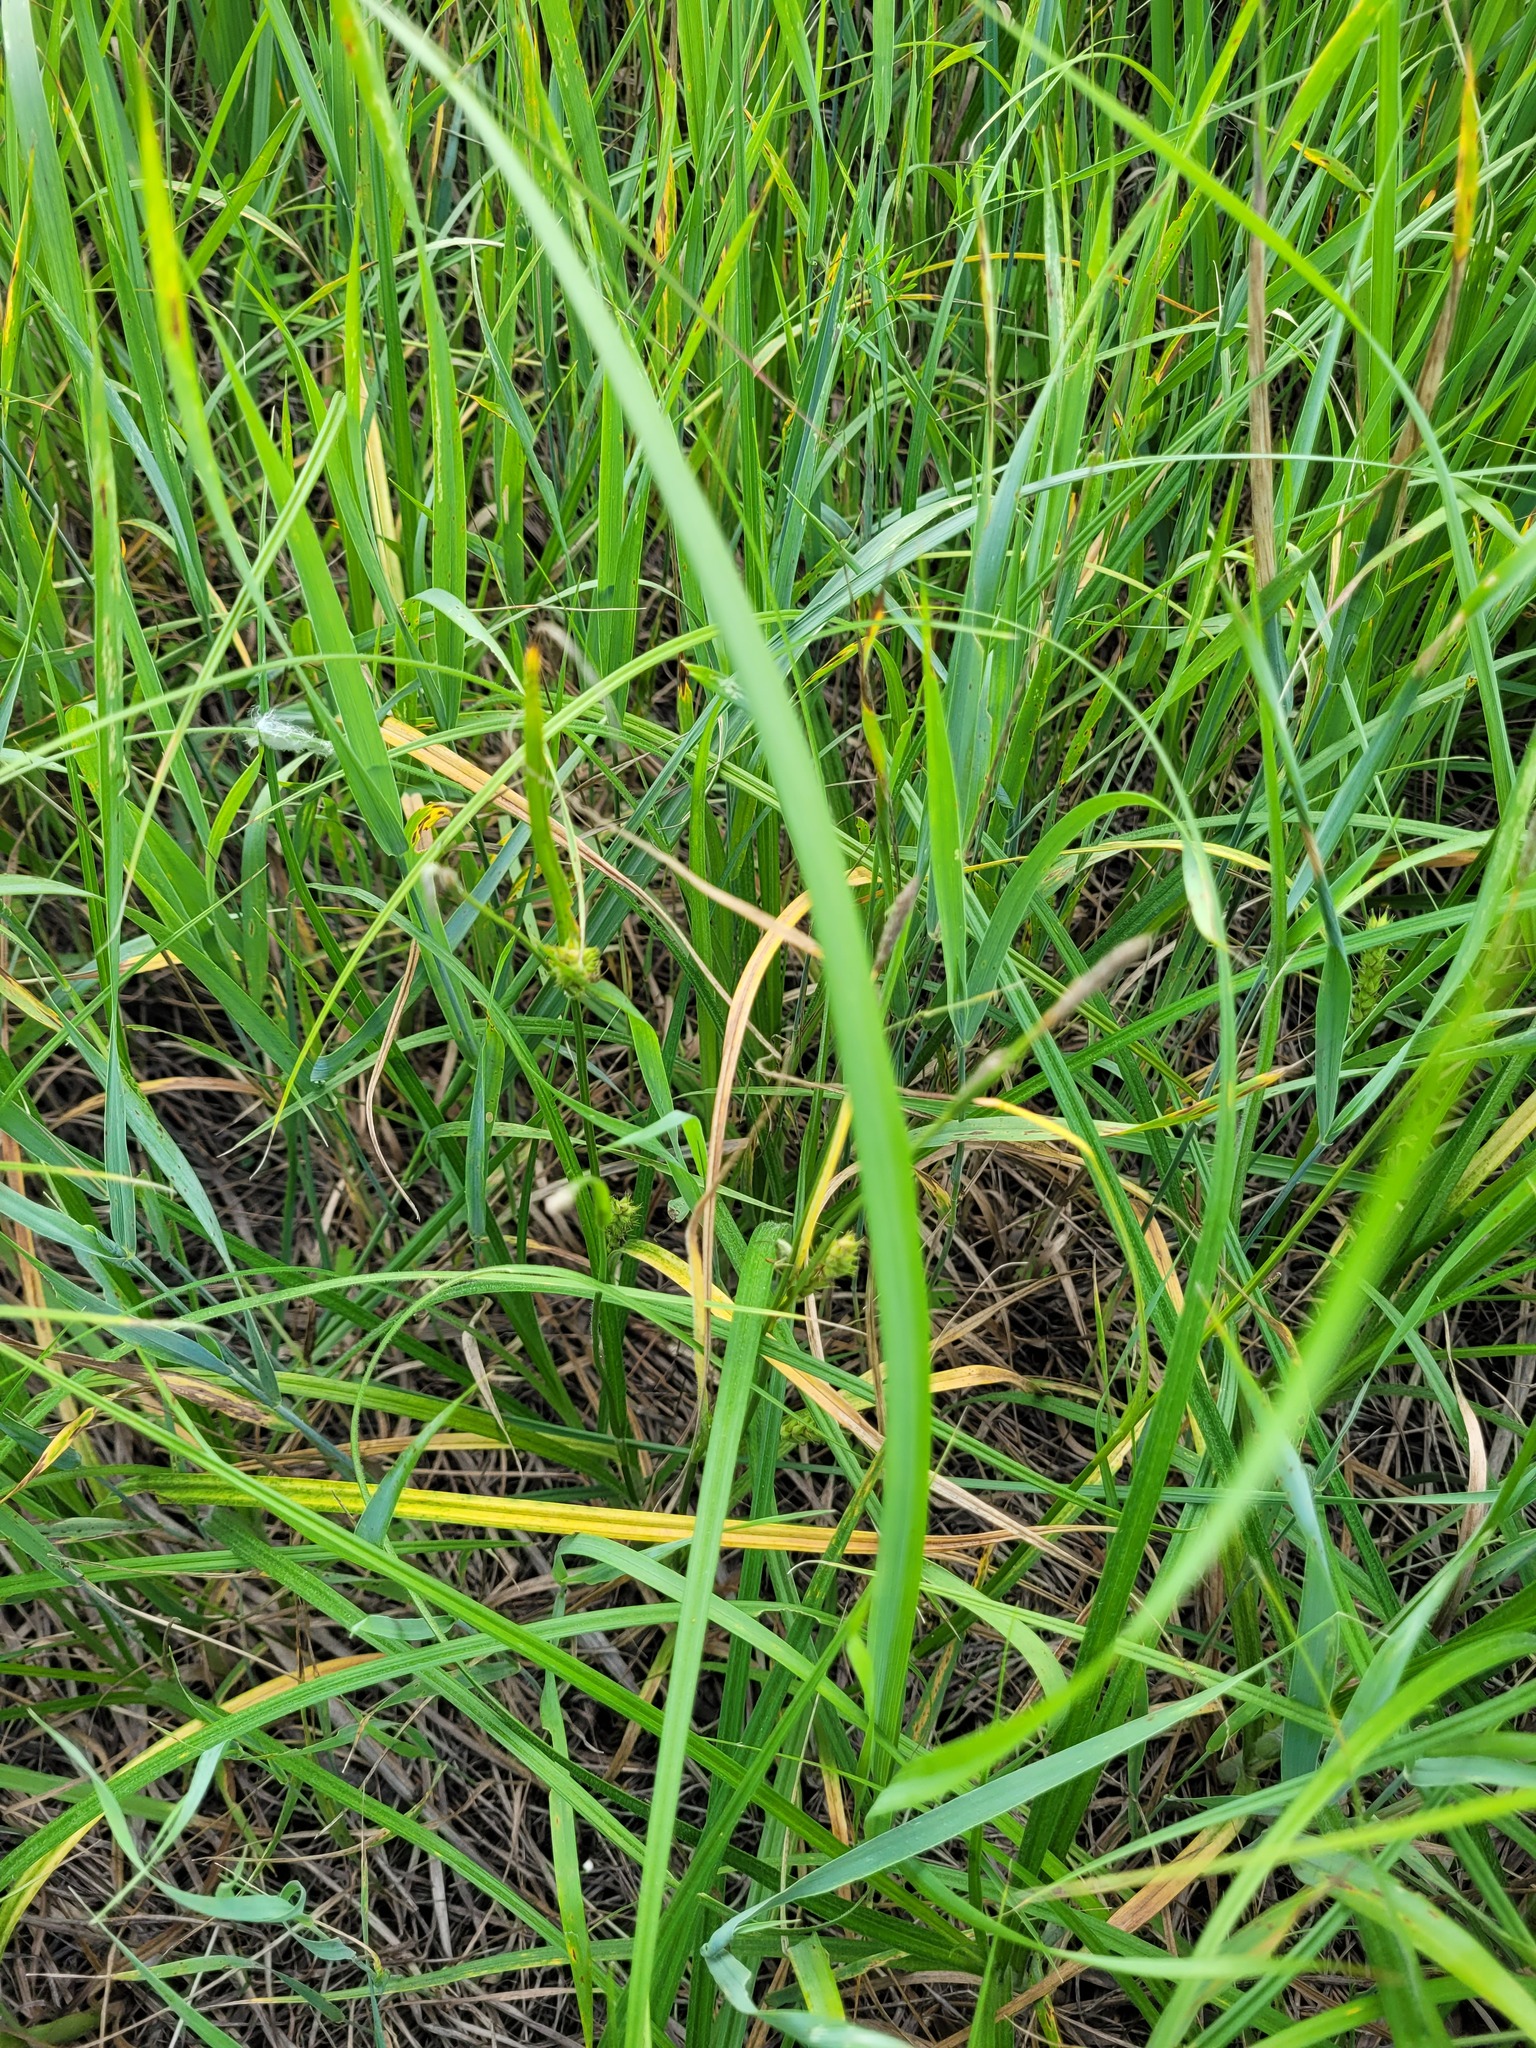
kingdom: Plantae
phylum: Tracheophyta
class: Liliopsida
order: Poales
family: Cyperaceae
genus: Carex
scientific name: Carex hirta
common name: Hairy sedge
